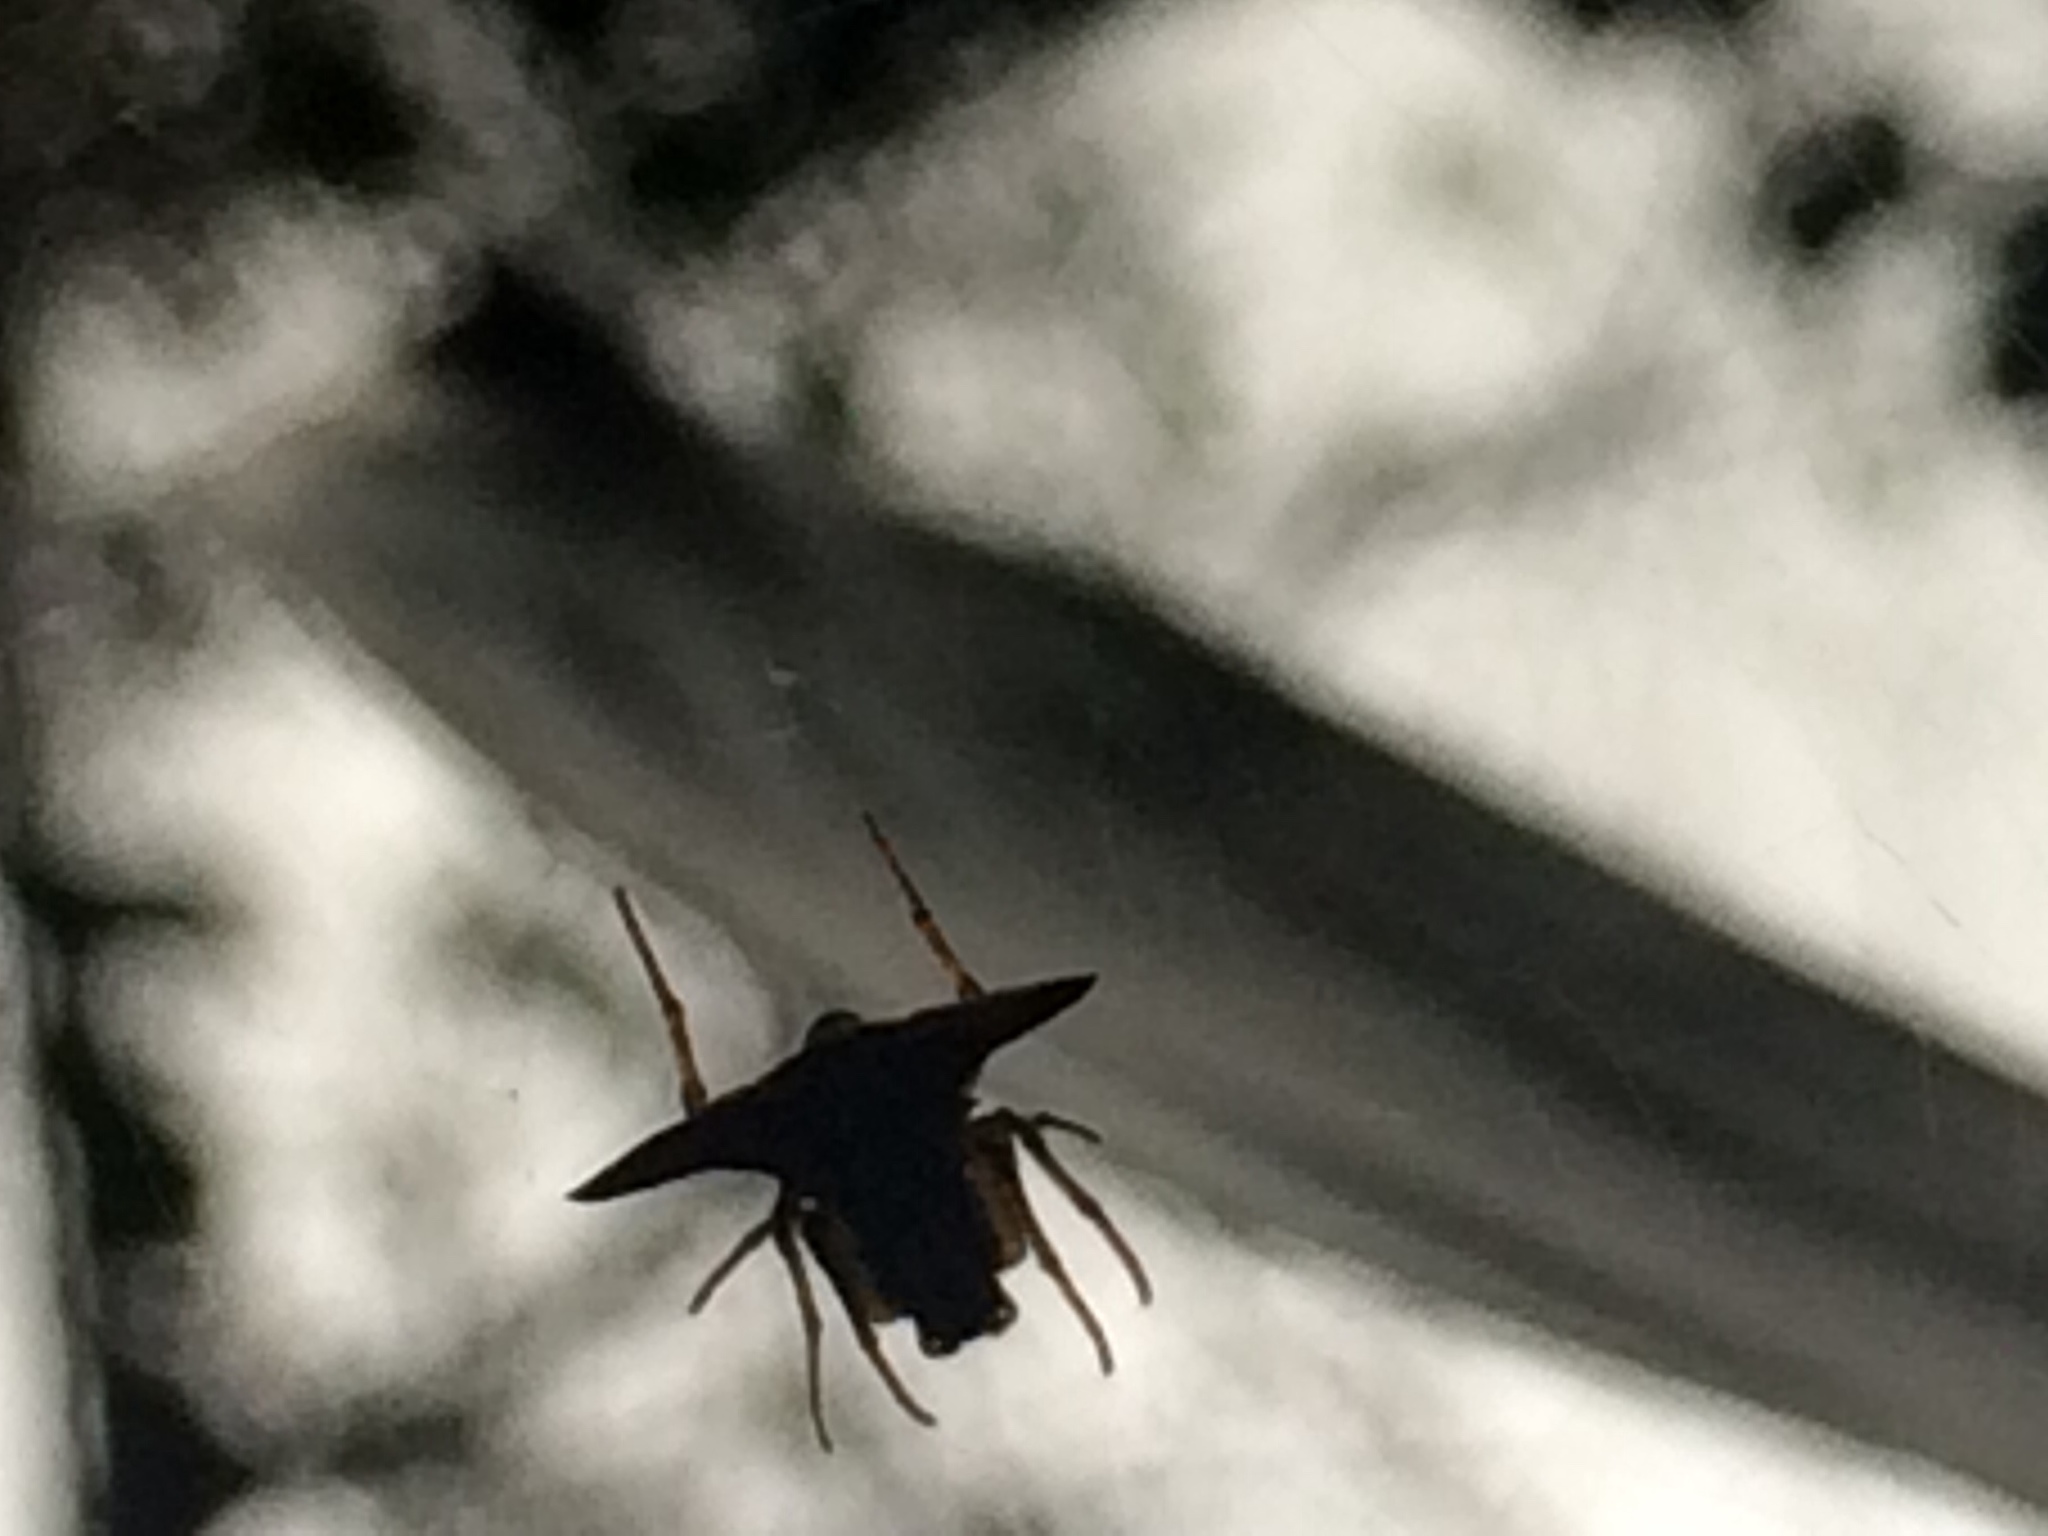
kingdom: Animalia
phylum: Arthropoda
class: Arachnida
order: Araneae
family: Araneidae
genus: Micrathena
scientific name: Micrathena annulata
